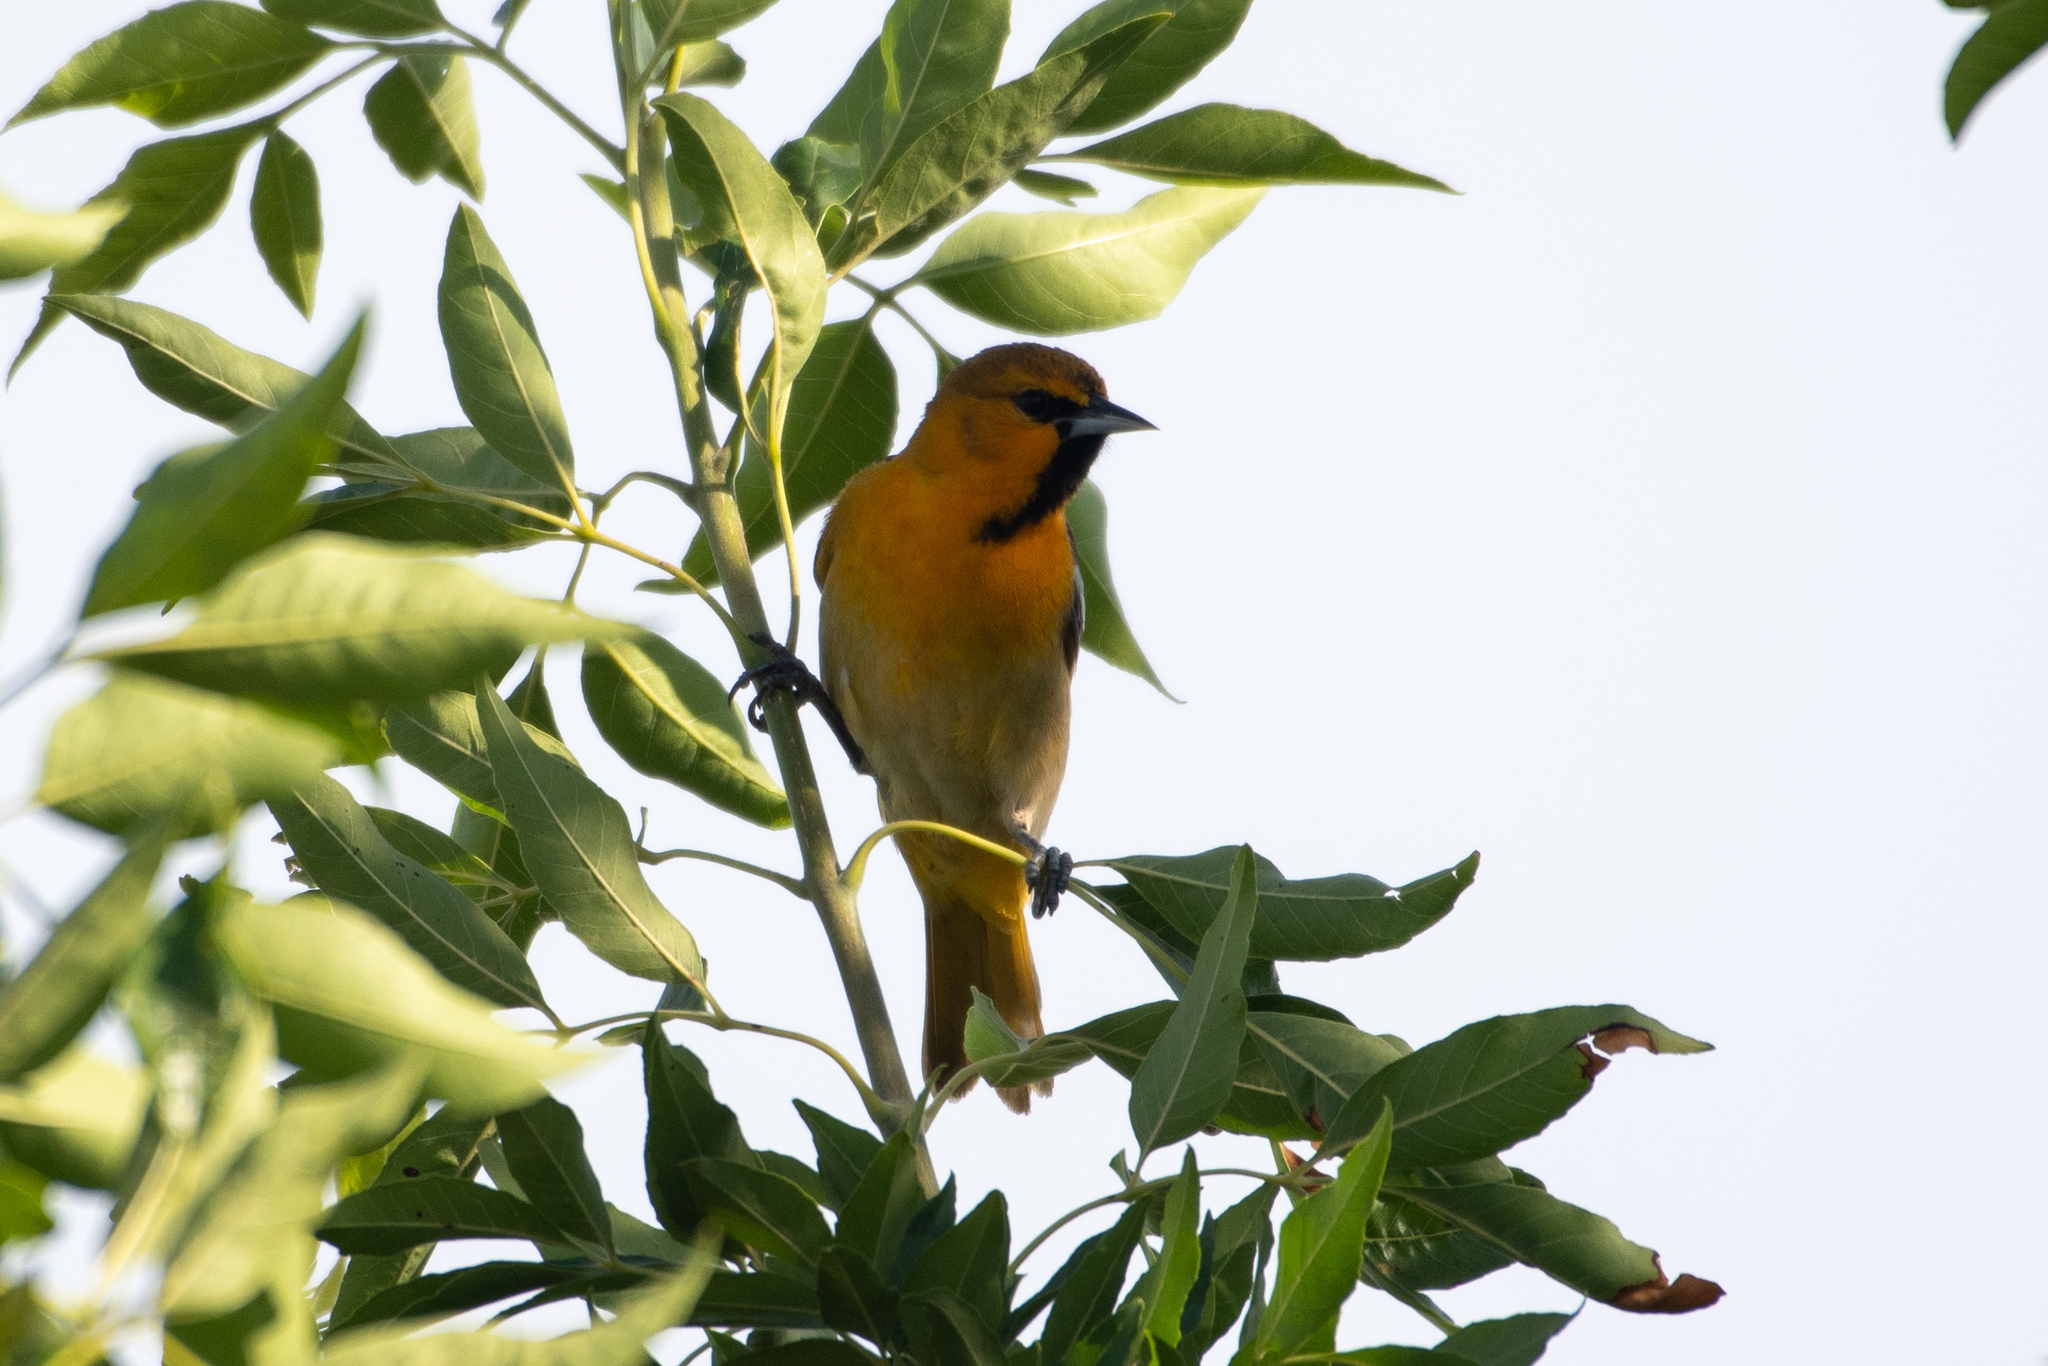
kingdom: Animalia
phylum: Chordata
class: Aves
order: Passeriformes
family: Icteridae
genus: Icterus
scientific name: Icterus bullockii
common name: Bullock's oriole
